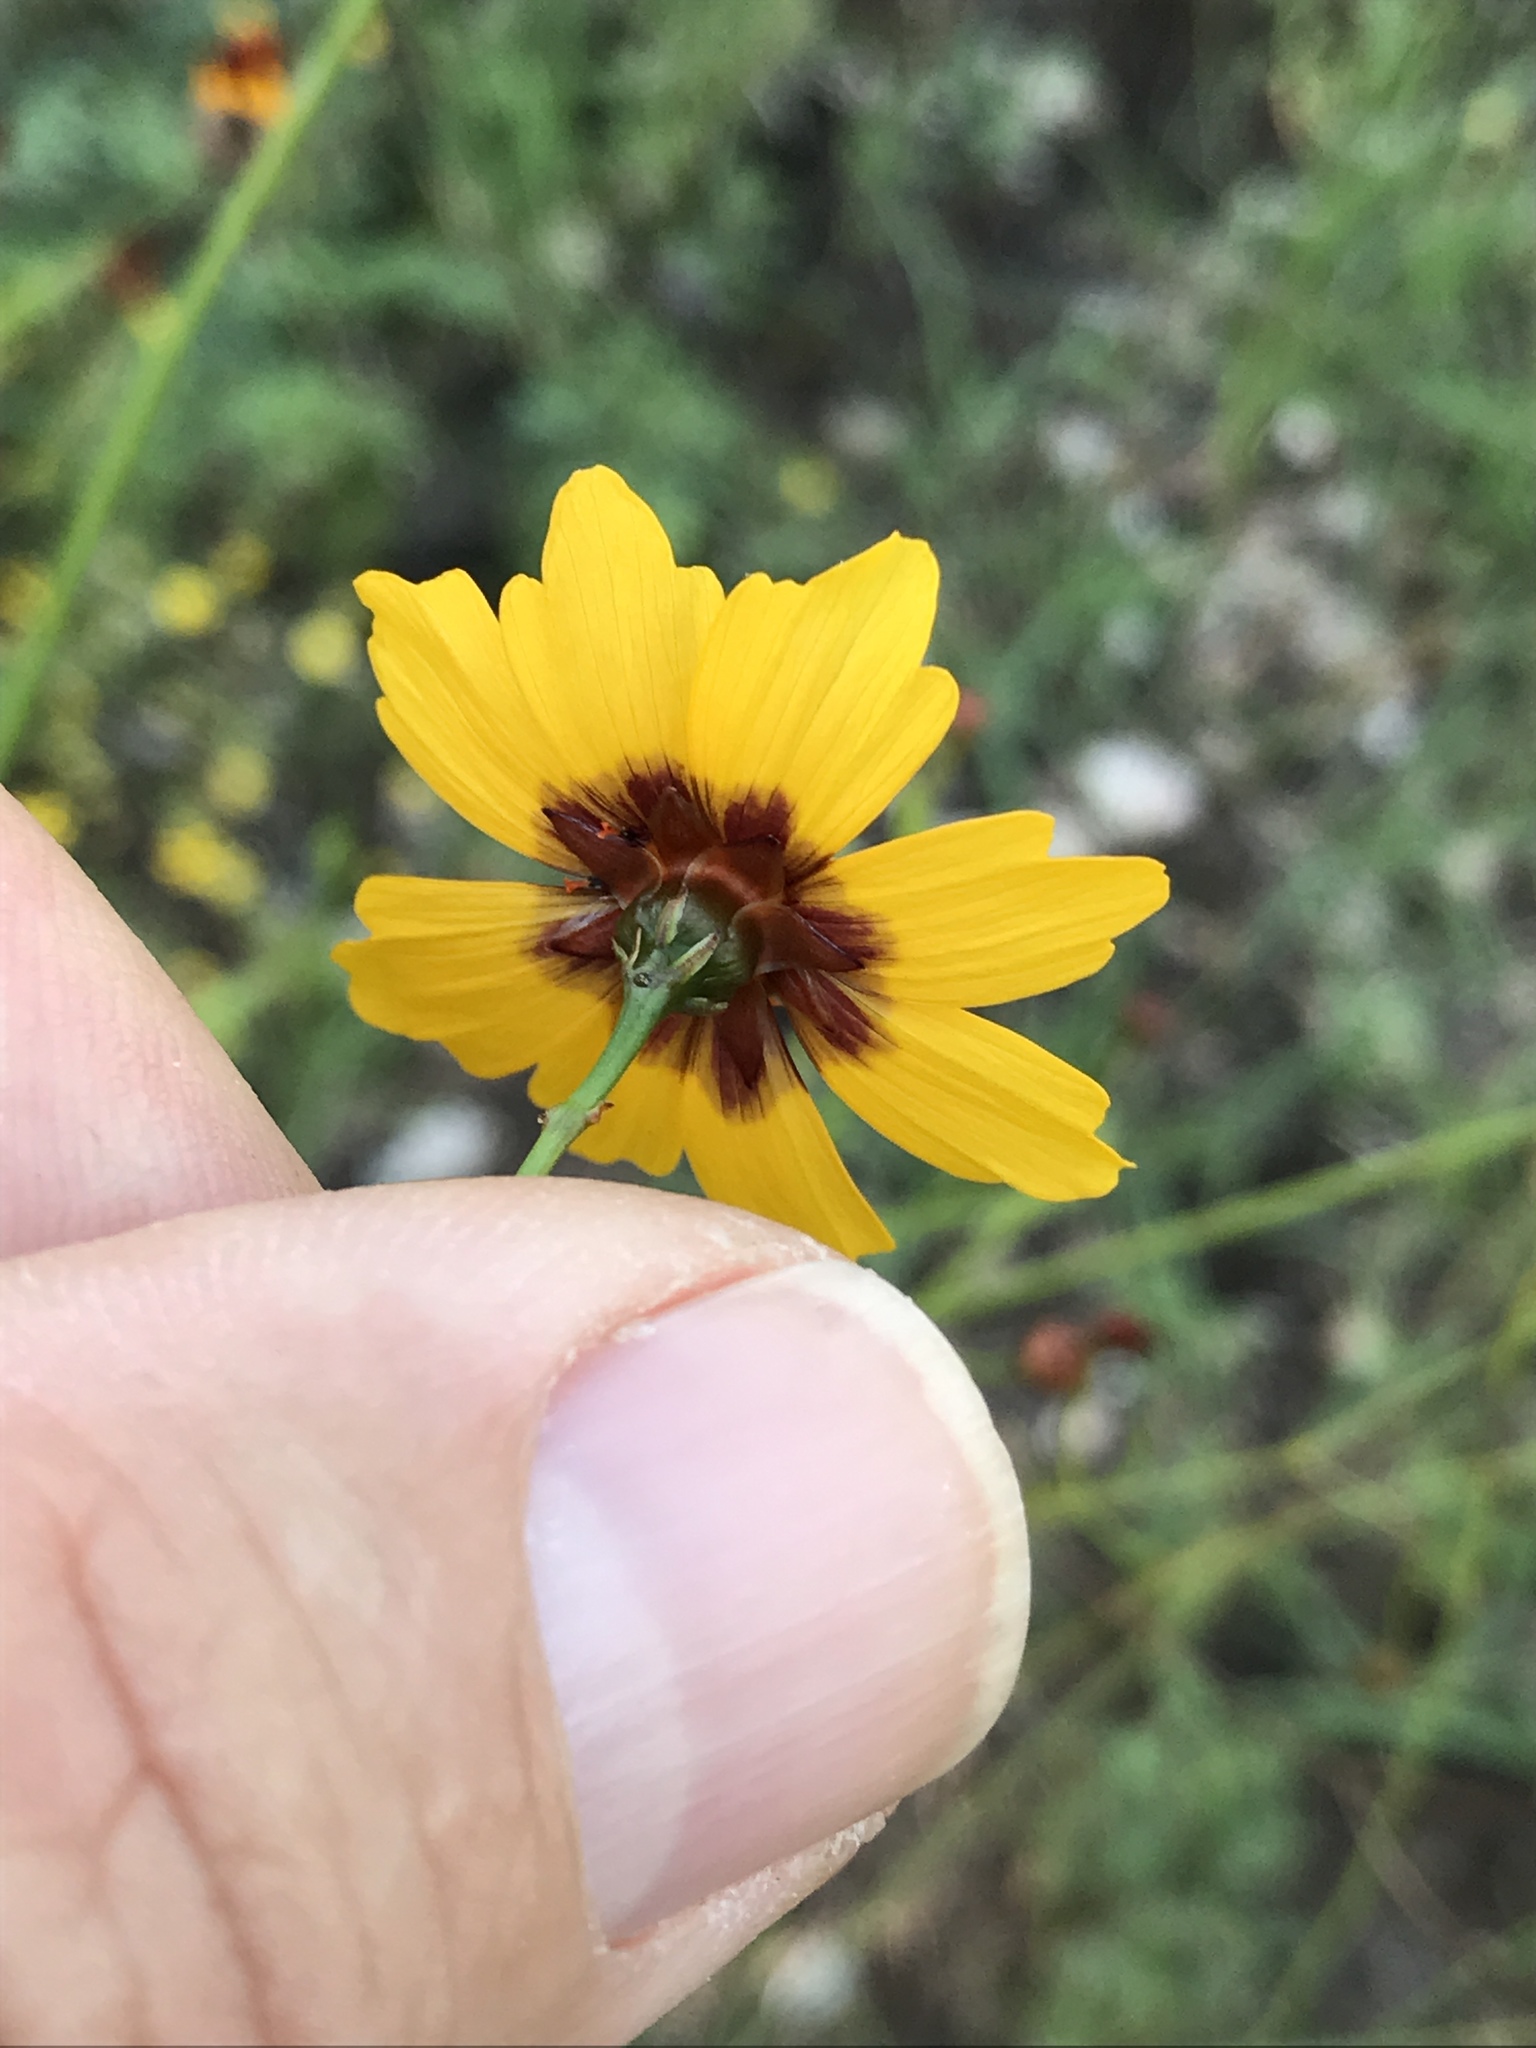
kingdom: Plantae
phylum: Tracheophyta
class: Magnoliopsida
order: Asterales
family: Asteraceae
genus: Coreopsis
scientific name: Coreopsis tinctoria
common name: Garden tickseed
